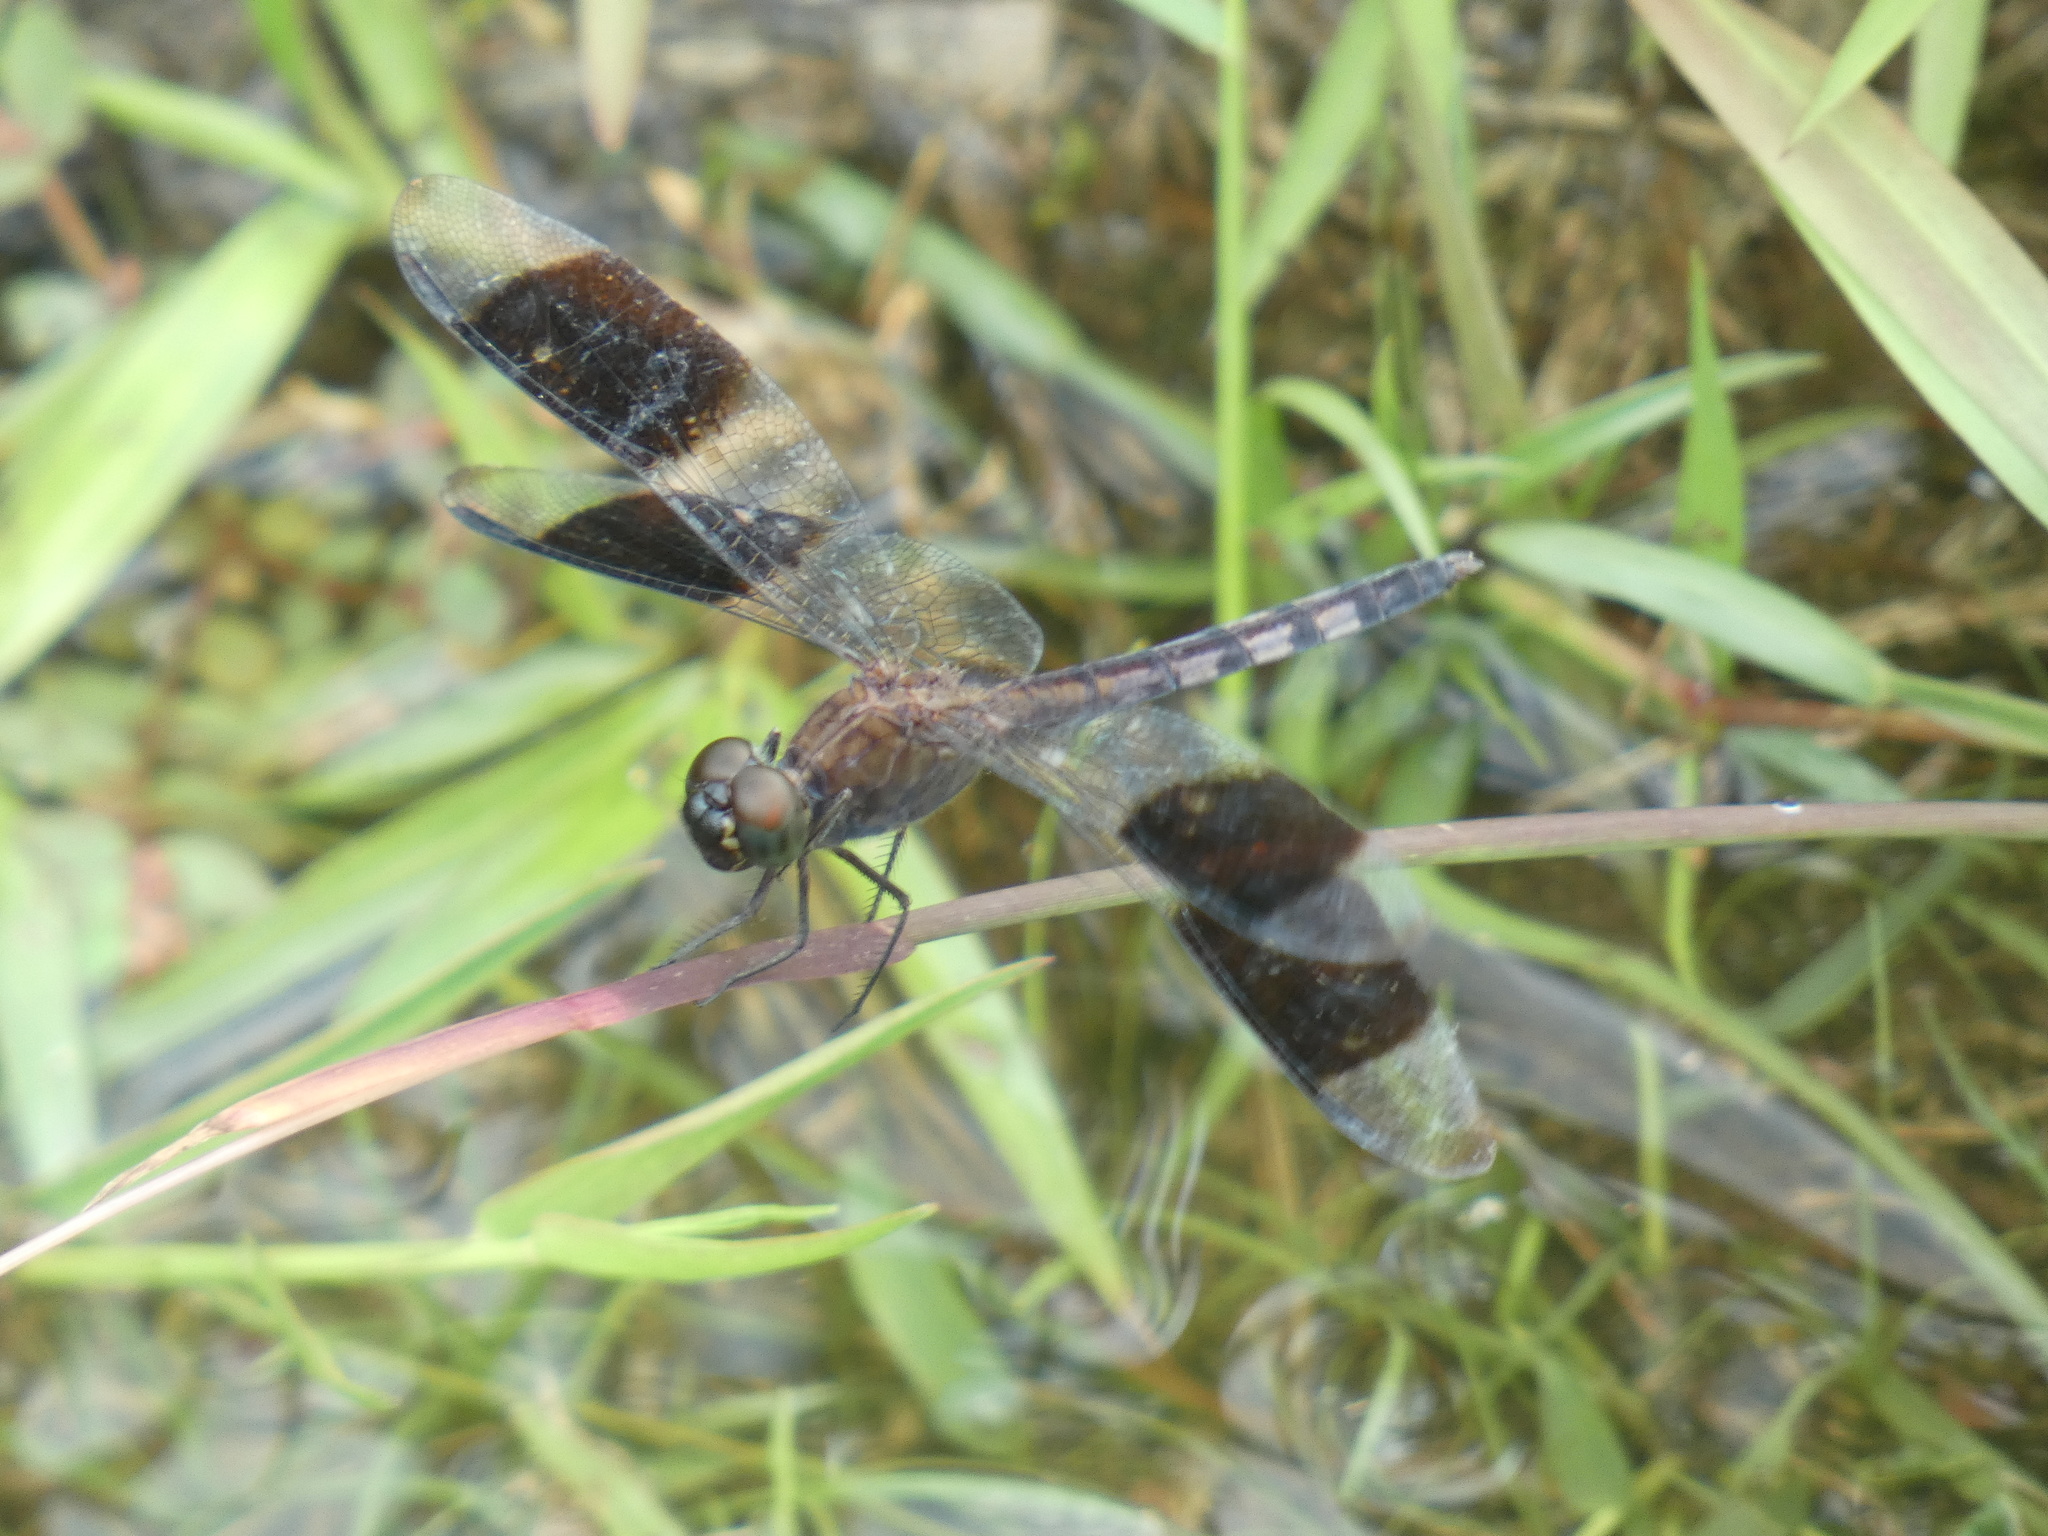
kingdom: Animalia
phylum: Arthropoda
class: Insecta
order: Odonata
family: Libellulidae
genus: Erythrodiplax
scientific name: Erythrodiplax umbrata
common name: Band-winged dragonlet
